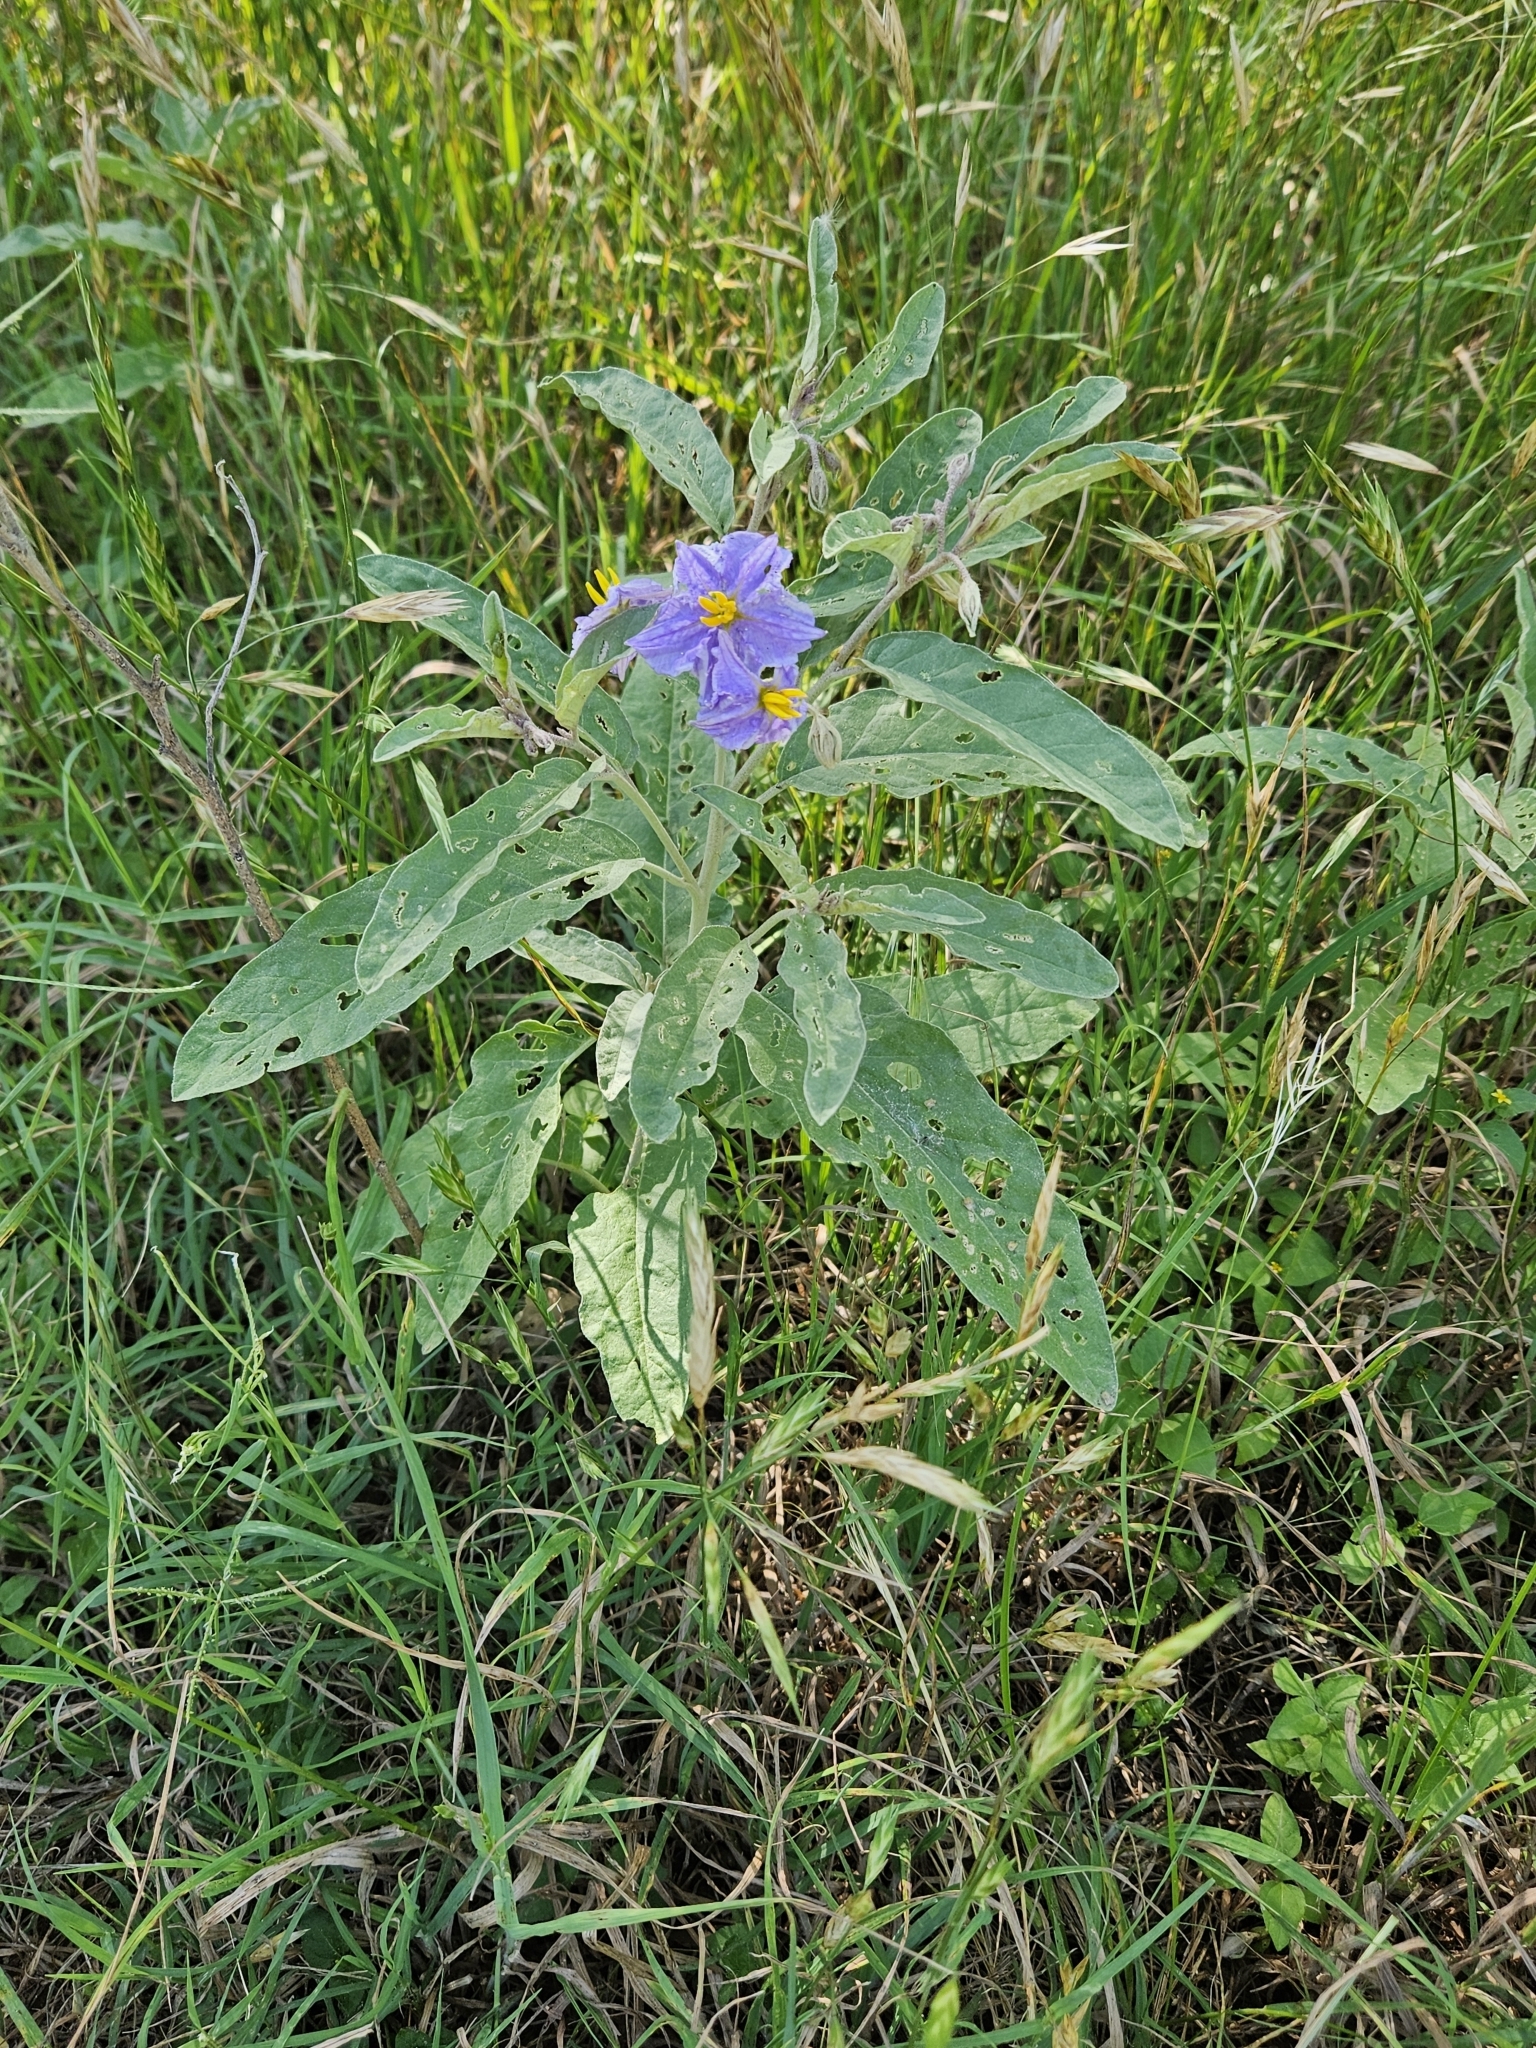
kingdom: Plantae
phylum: Tracheophyta
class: Magnoliopsida
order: Solanales
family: Solanaceae
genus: Solanum
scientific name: Solanum elaeagnifolium
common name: Silverleaf nightshade
